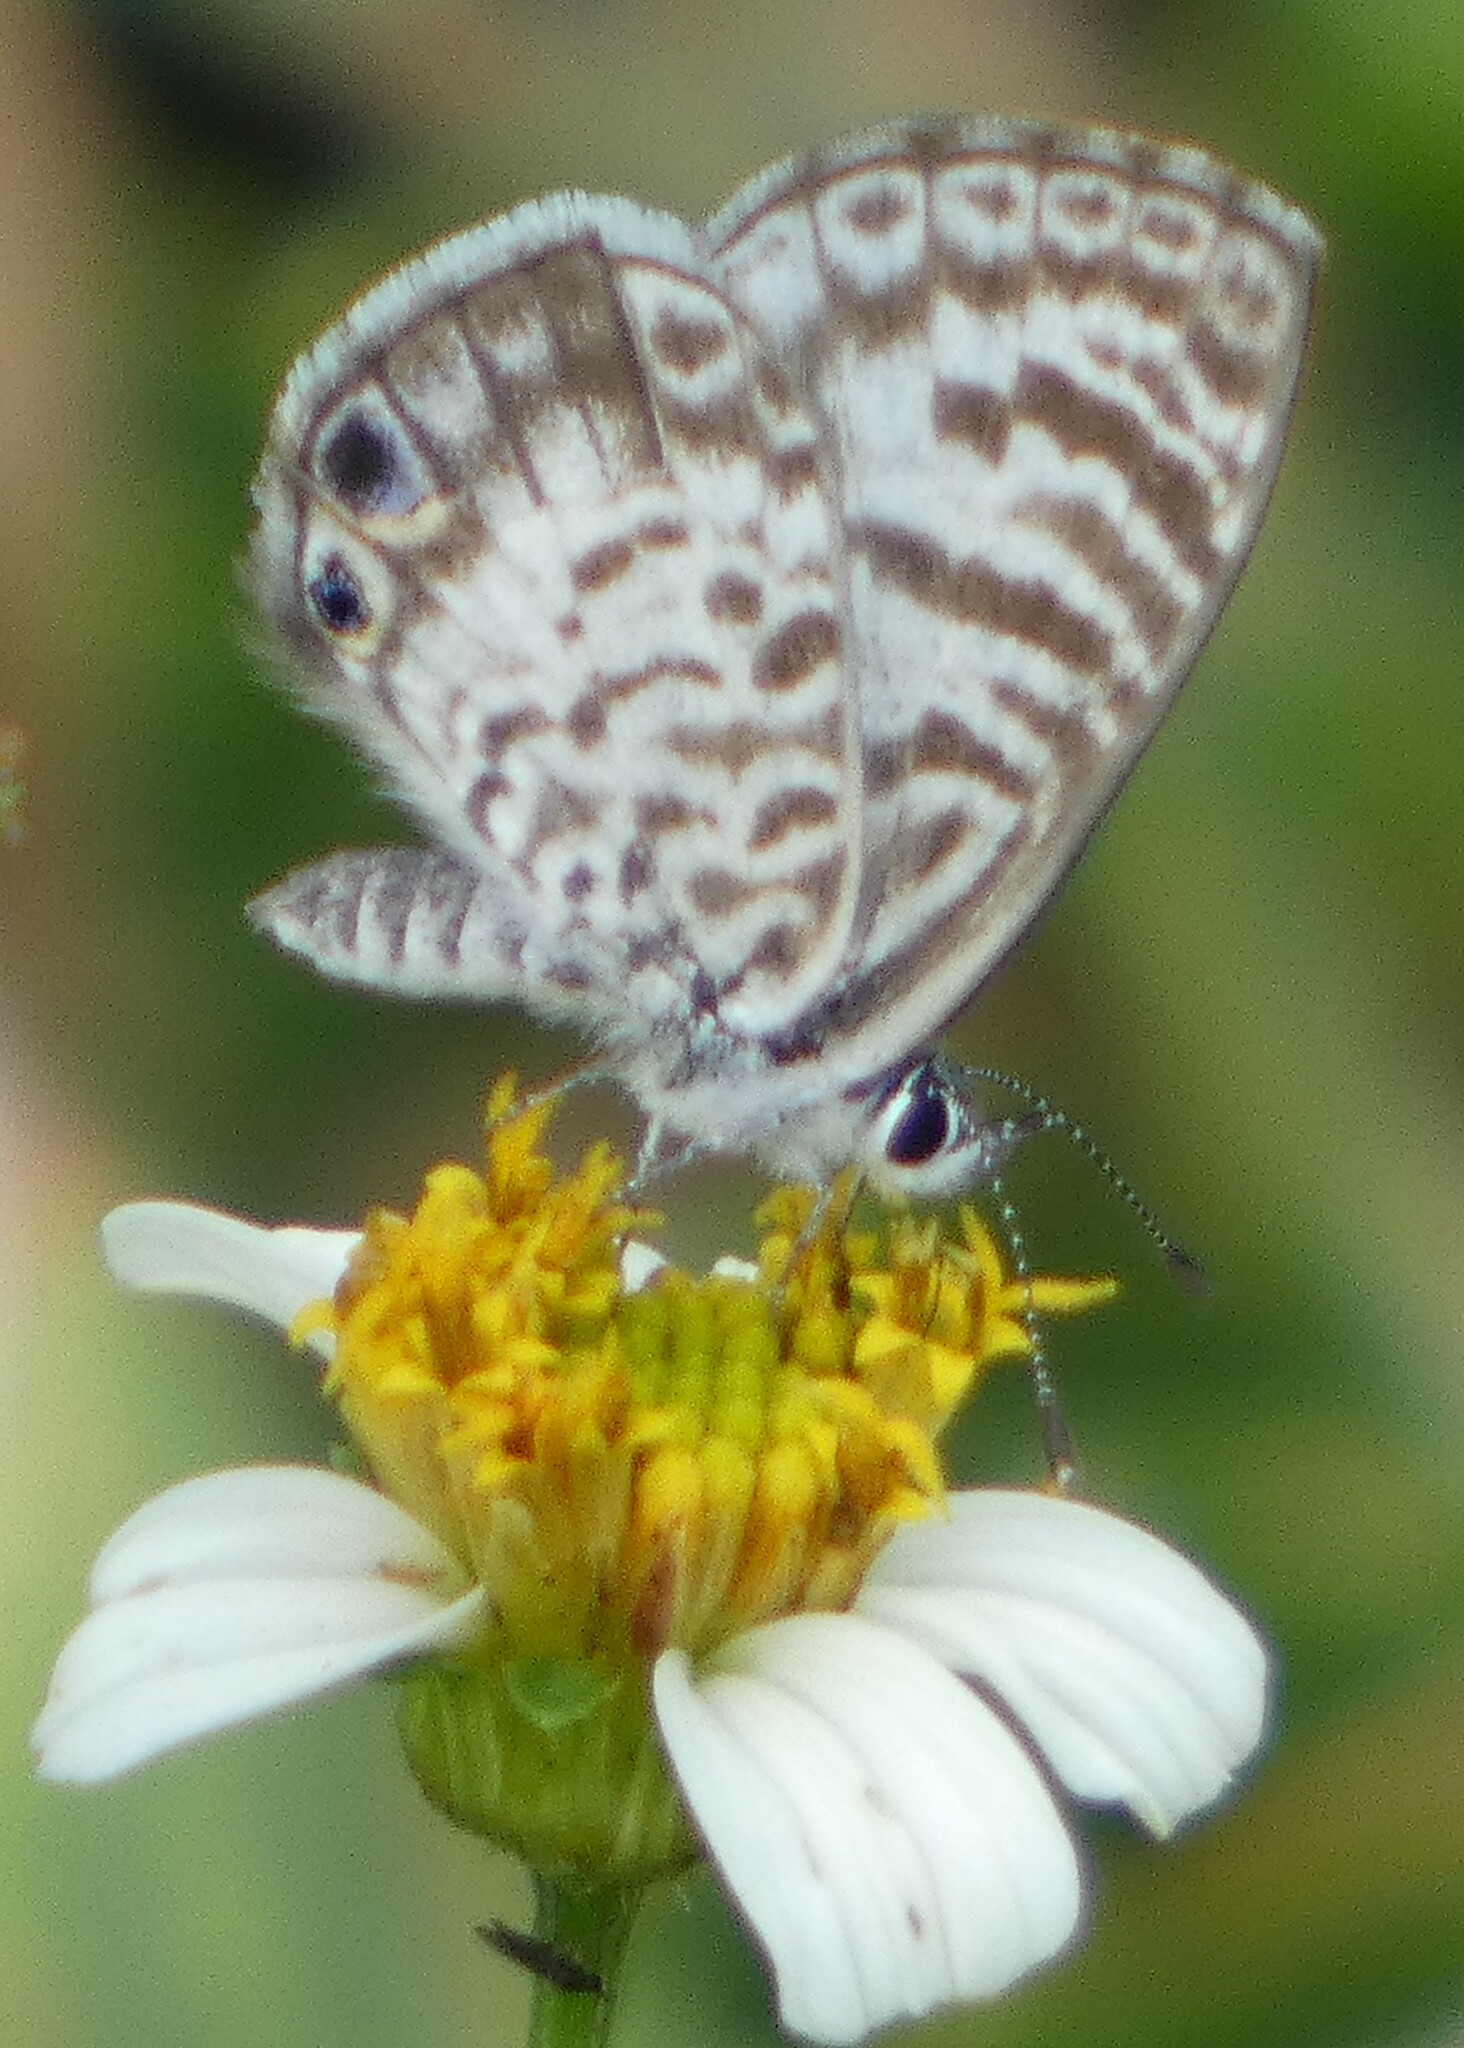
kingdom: Animalia
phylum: Arthropoda
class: Insecta
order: Lepidoptera
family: Lycaenidae
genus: Leptotes
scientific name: Leptotes cassius
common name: Cassius blue
